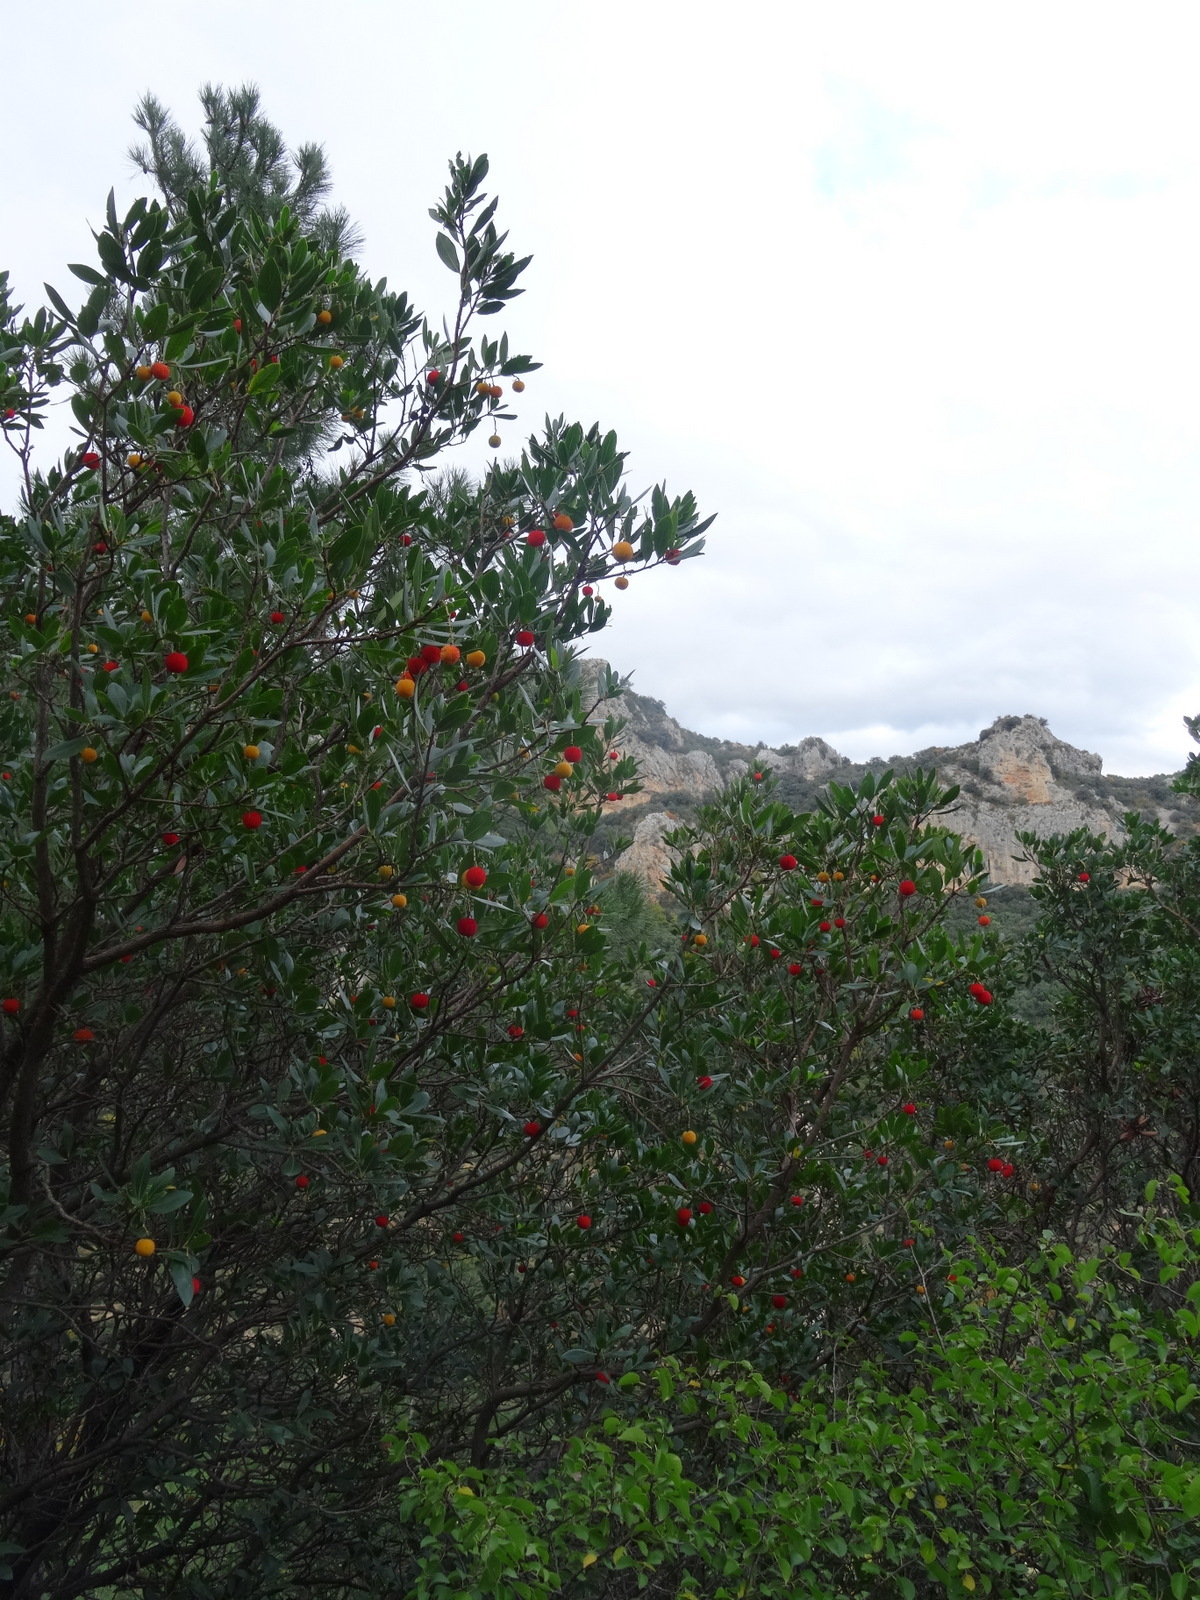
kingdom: Plantae
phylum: Tracheophyta
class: Magnoliopsida
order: Ericales
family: Ericaceae
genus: Arbutus
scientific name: Arbutus unedo
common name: Strawberry-tree
